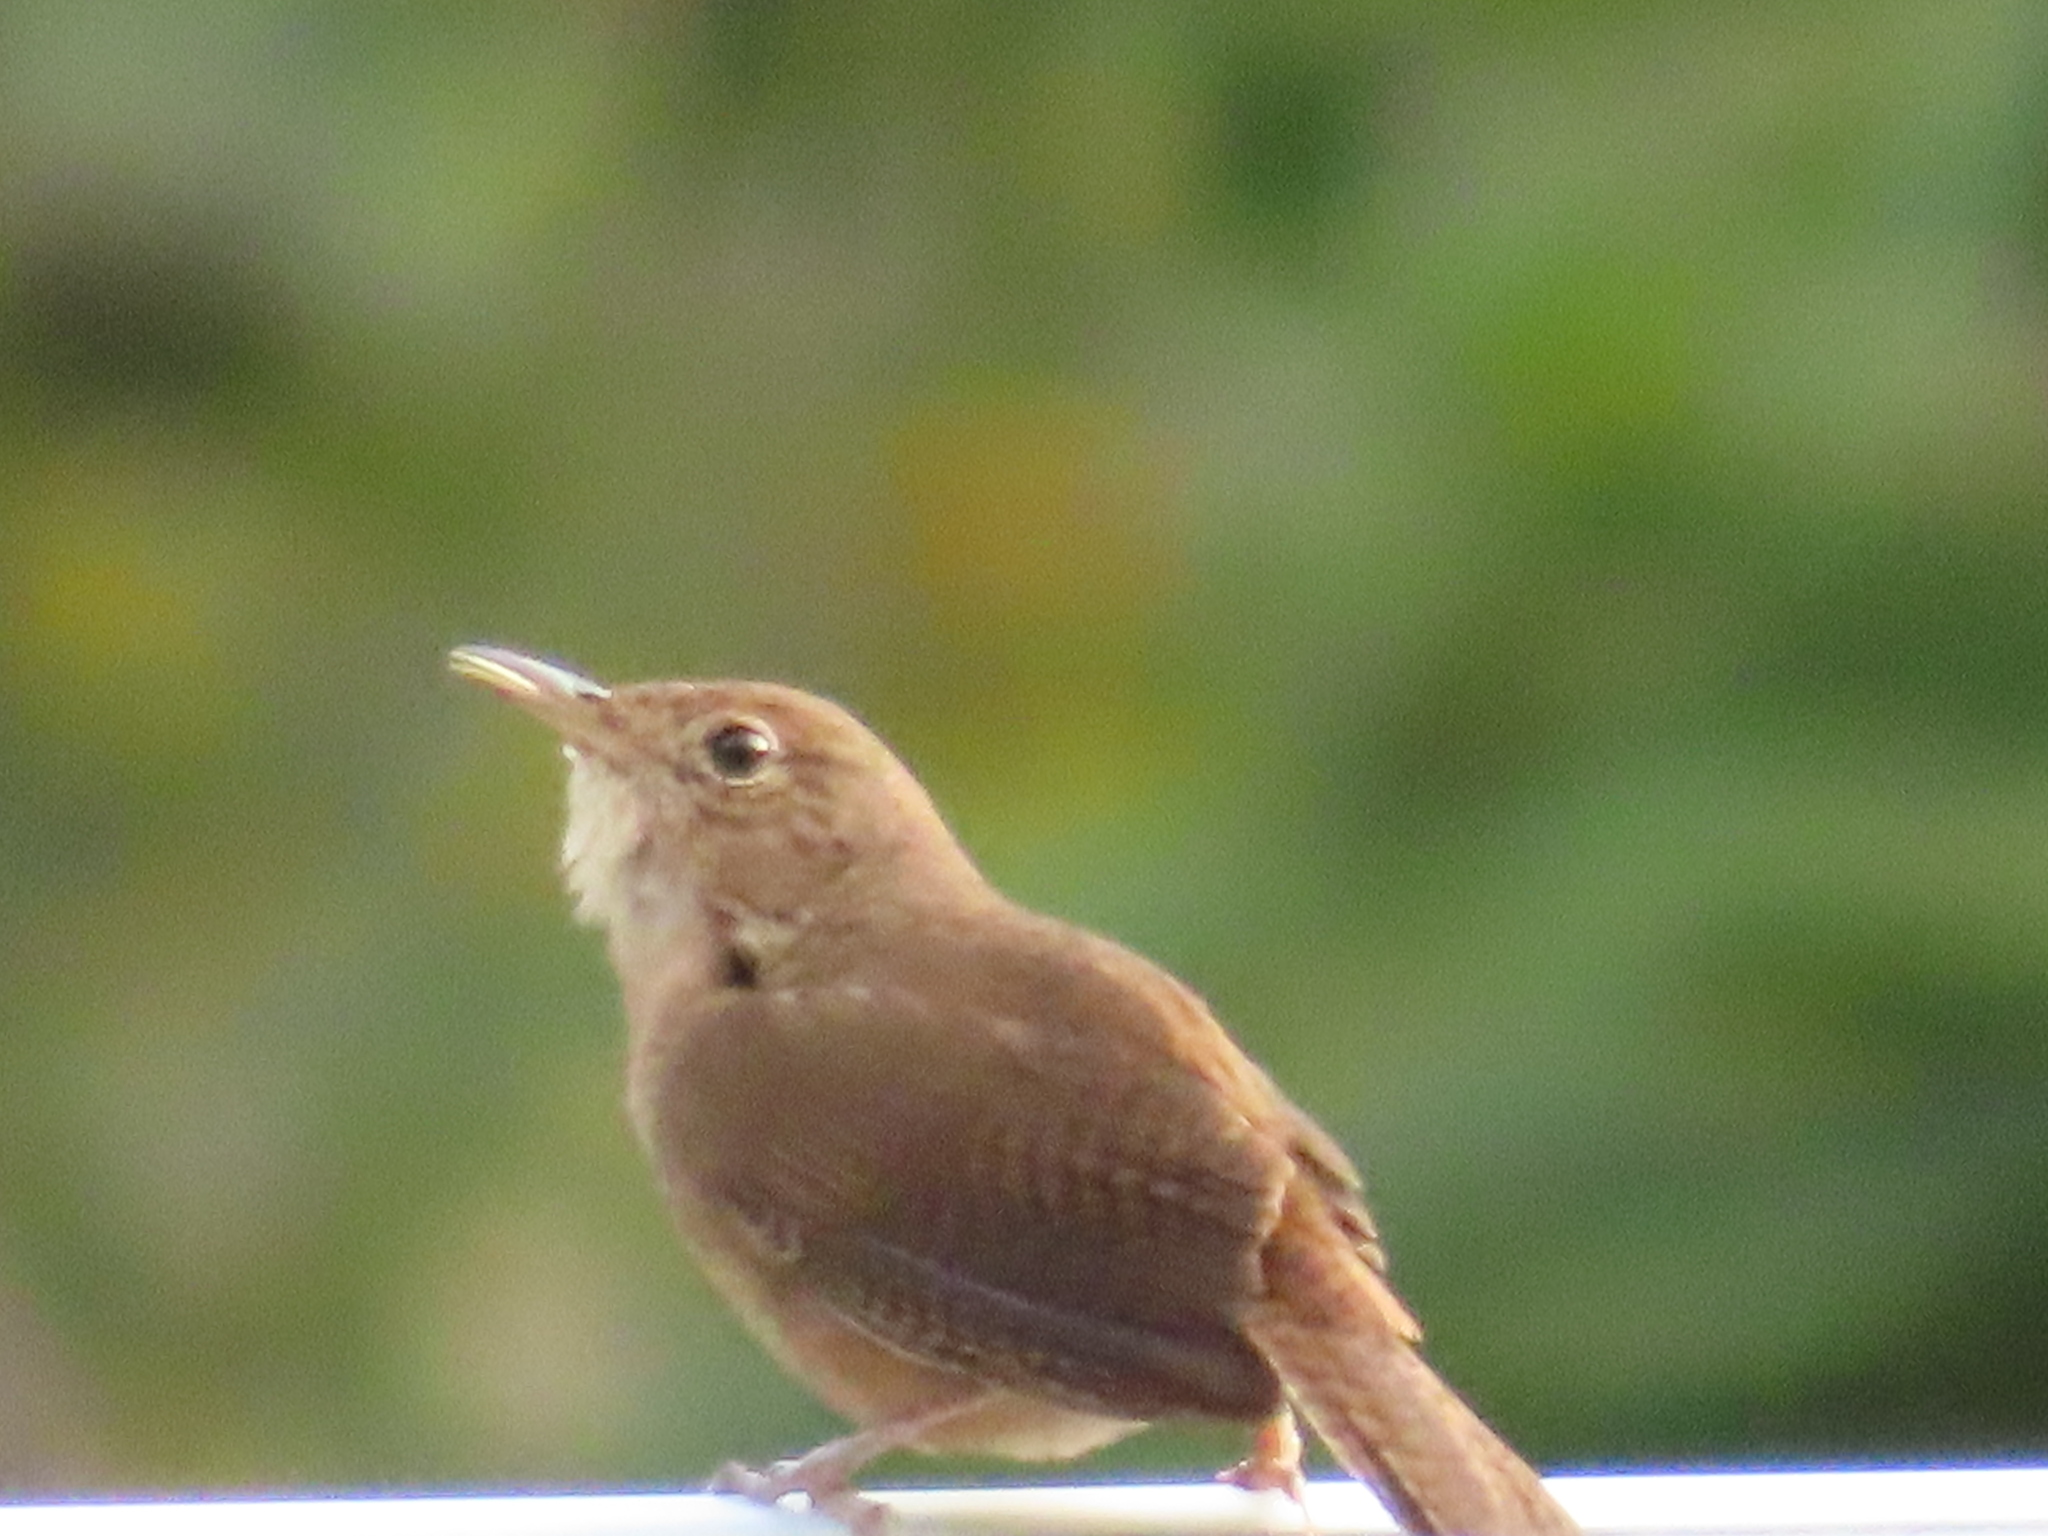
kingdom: Animalia
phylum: Chordata
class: Aves
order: Passeriformes
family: Troglodytidae
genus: Troglodytes
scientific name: Troglodytes aedon
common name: House wren
